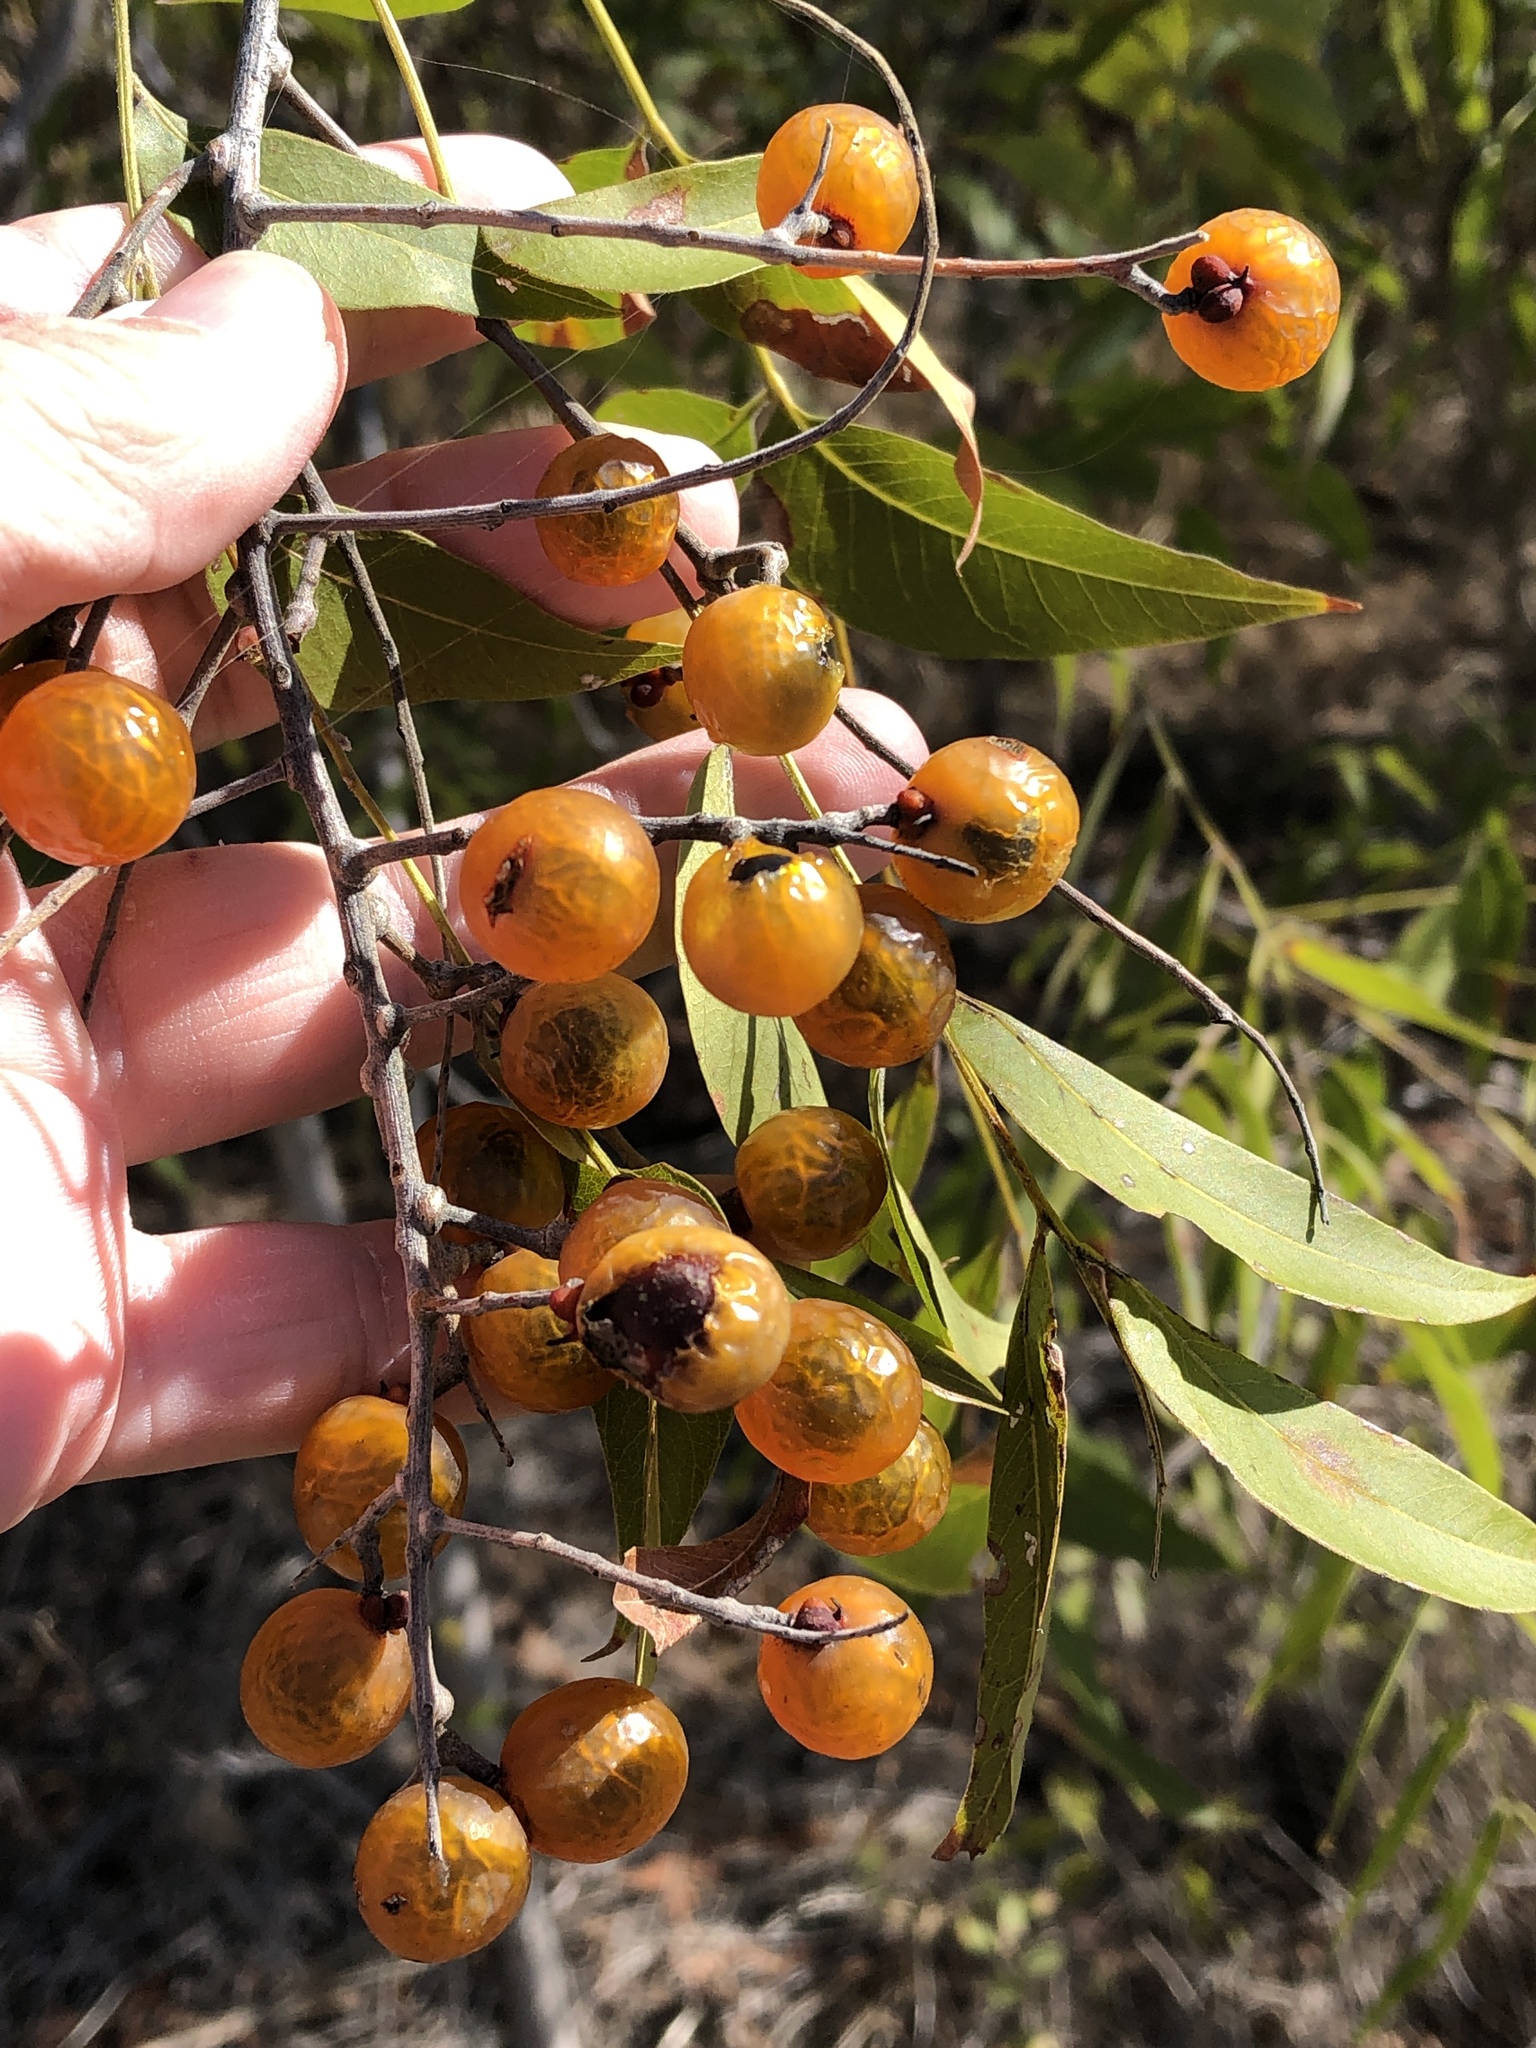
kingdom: Plantae
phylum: Tracheophyta
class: Magnoliopsida
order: Sapindales
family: Sapindaceae
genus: Sapindus
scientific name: Sapindus drummondii
